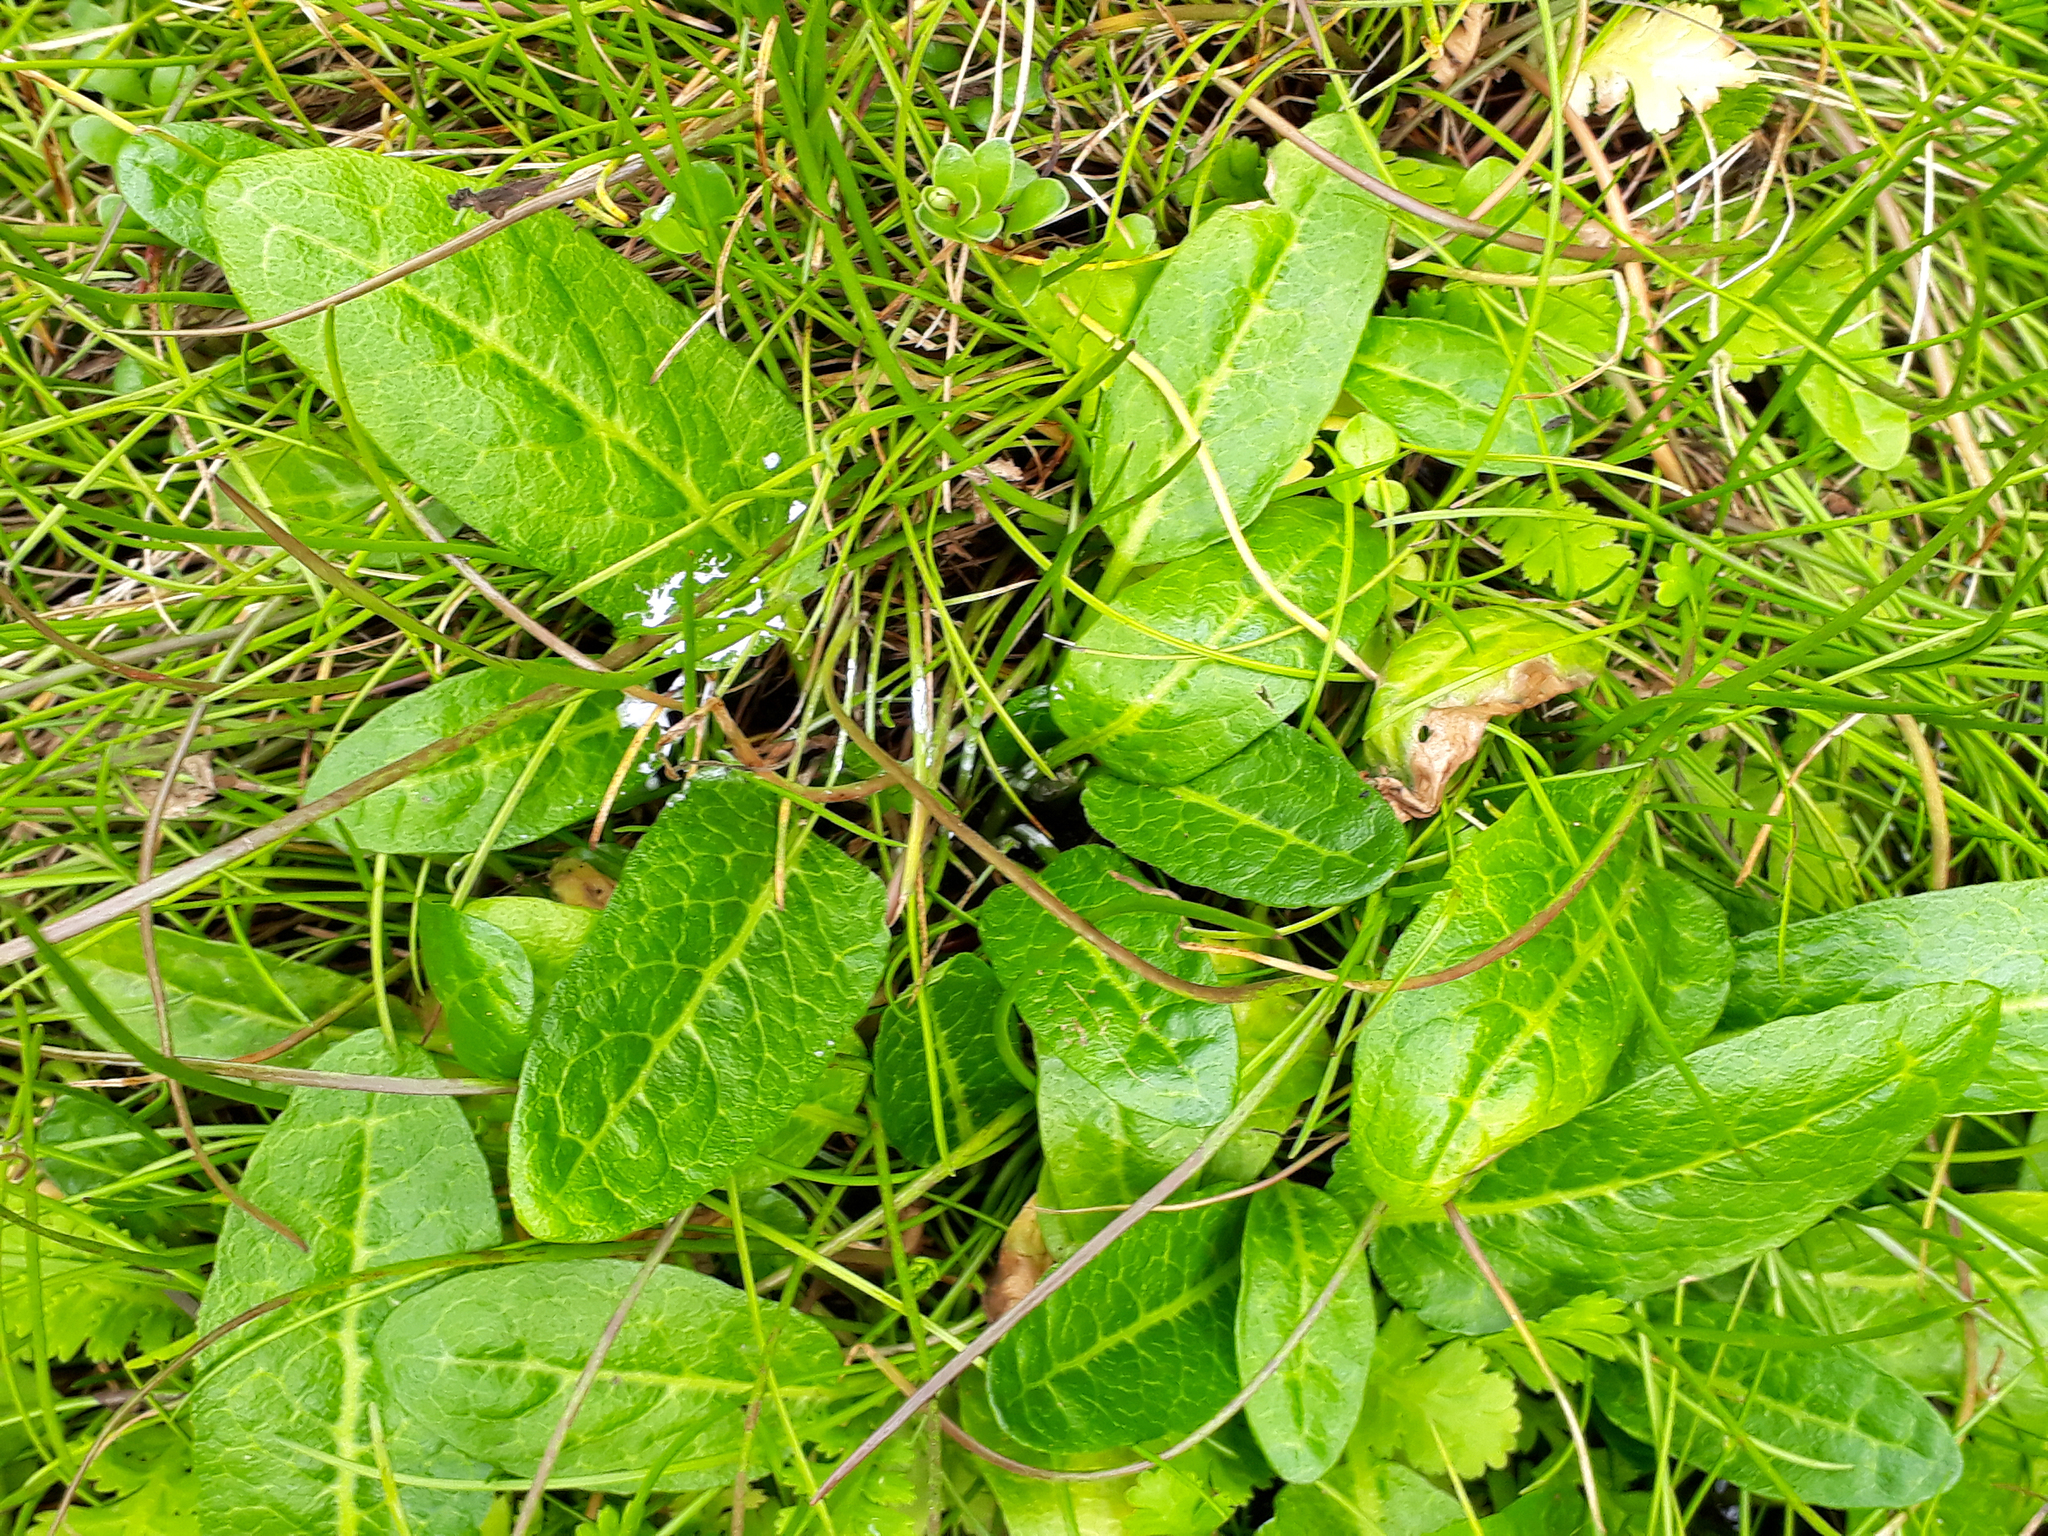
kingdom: Plantae
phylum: Tracheophyta
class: Magnoliopsida
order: Caryophyllales
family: Polygonaceae
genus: Rumex
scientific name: Rumex neglectus
